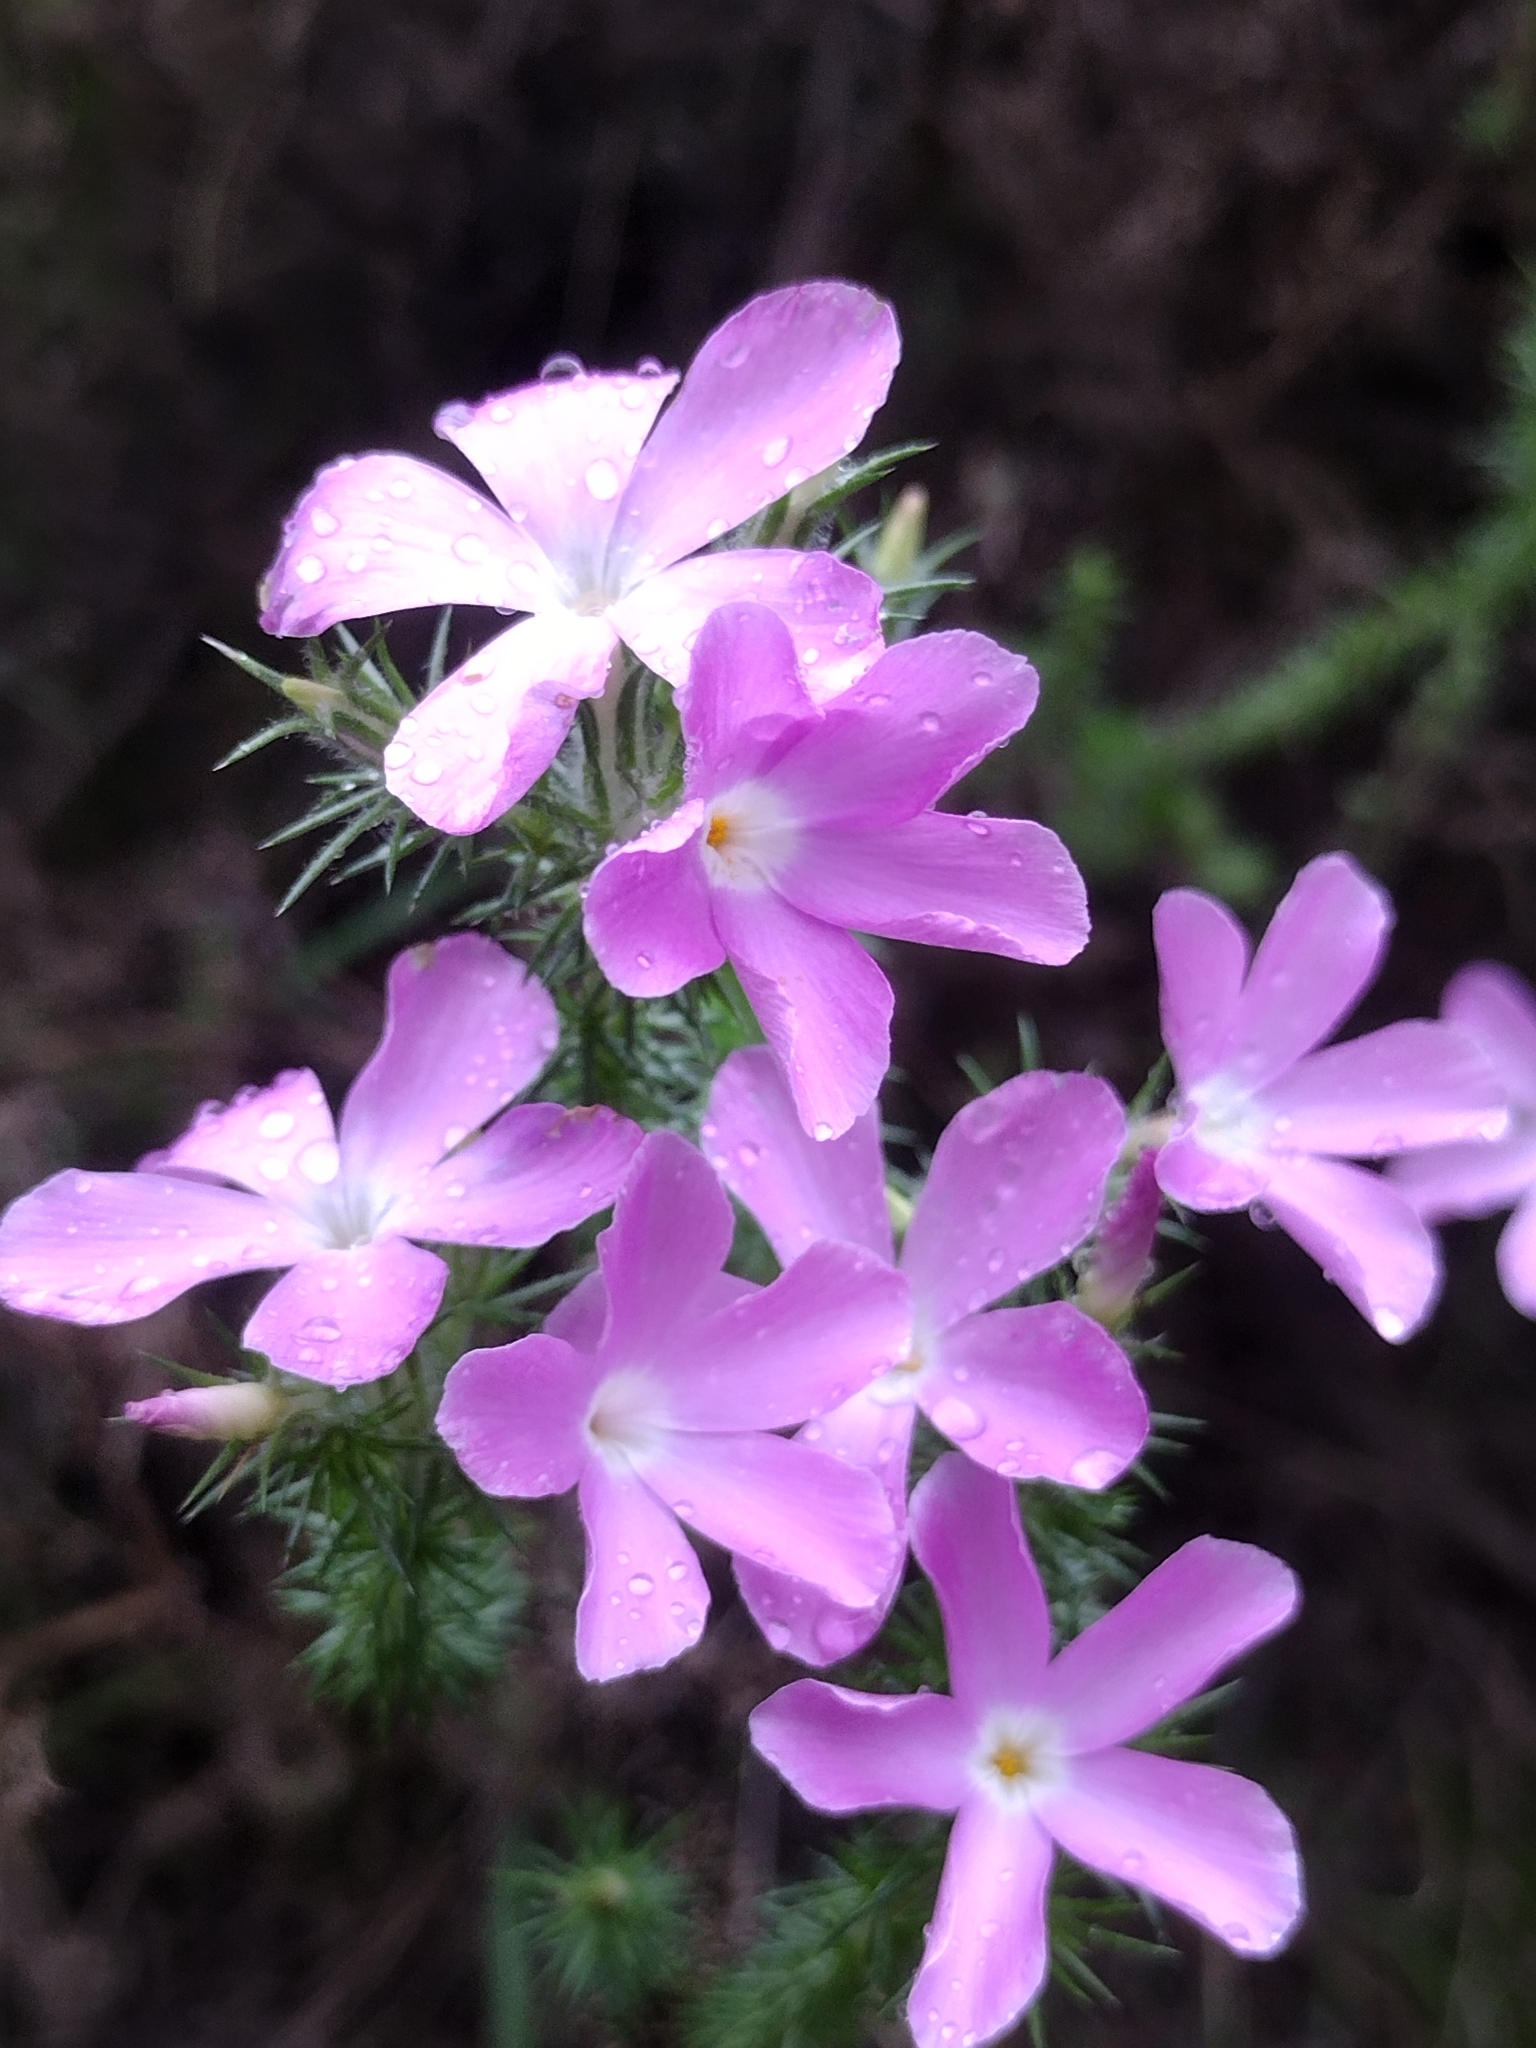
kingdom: Plantae
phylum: Tracheophyta
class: Magnoliopsida
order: Ericales
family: Polemoniaceae
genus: Linanthus
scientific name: Linanthus californicus
